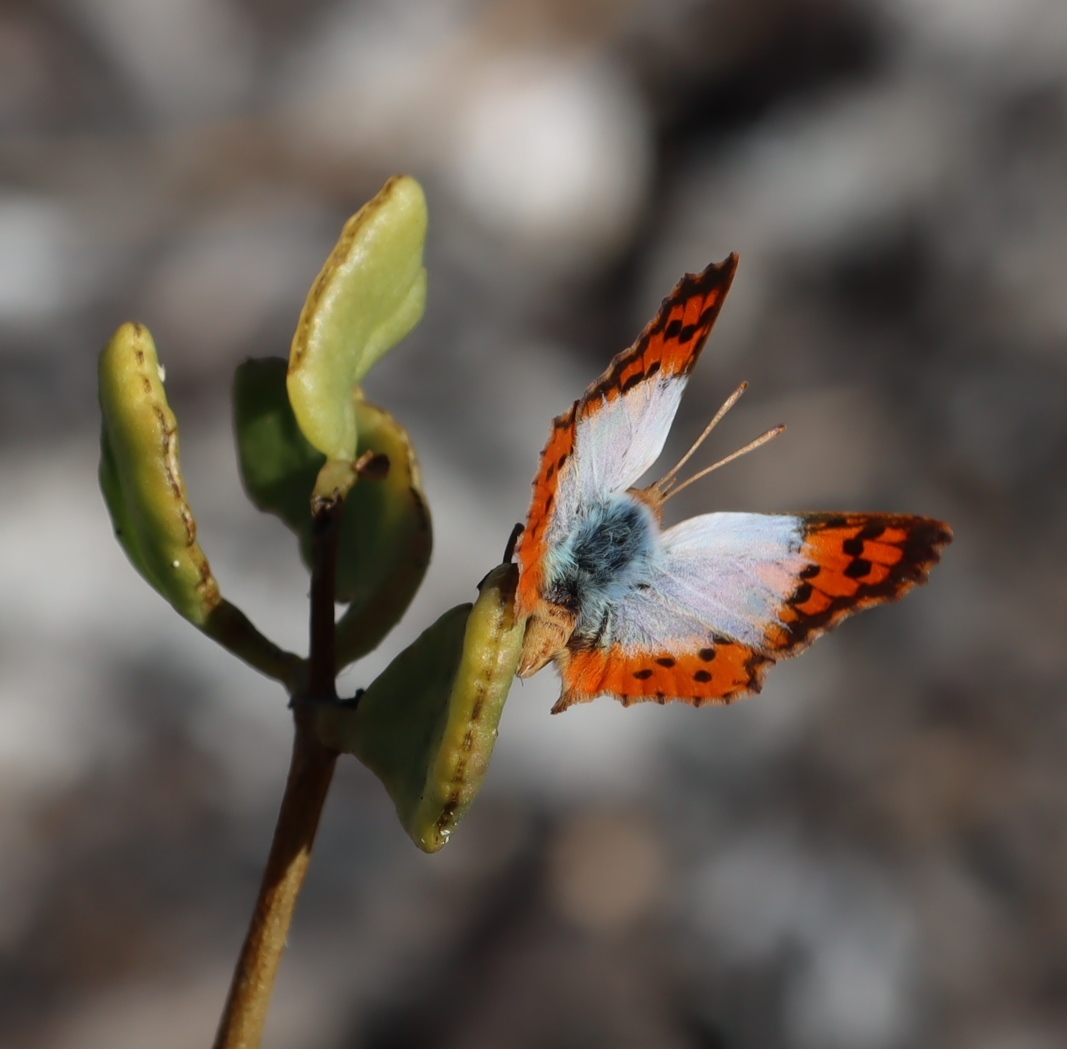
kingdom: Plantae
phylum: Tracheophyta
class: Magnoliopsida
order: Zygophyllales
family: Zygophyllaceae
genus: Roepera
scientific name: Roepera morgsana
